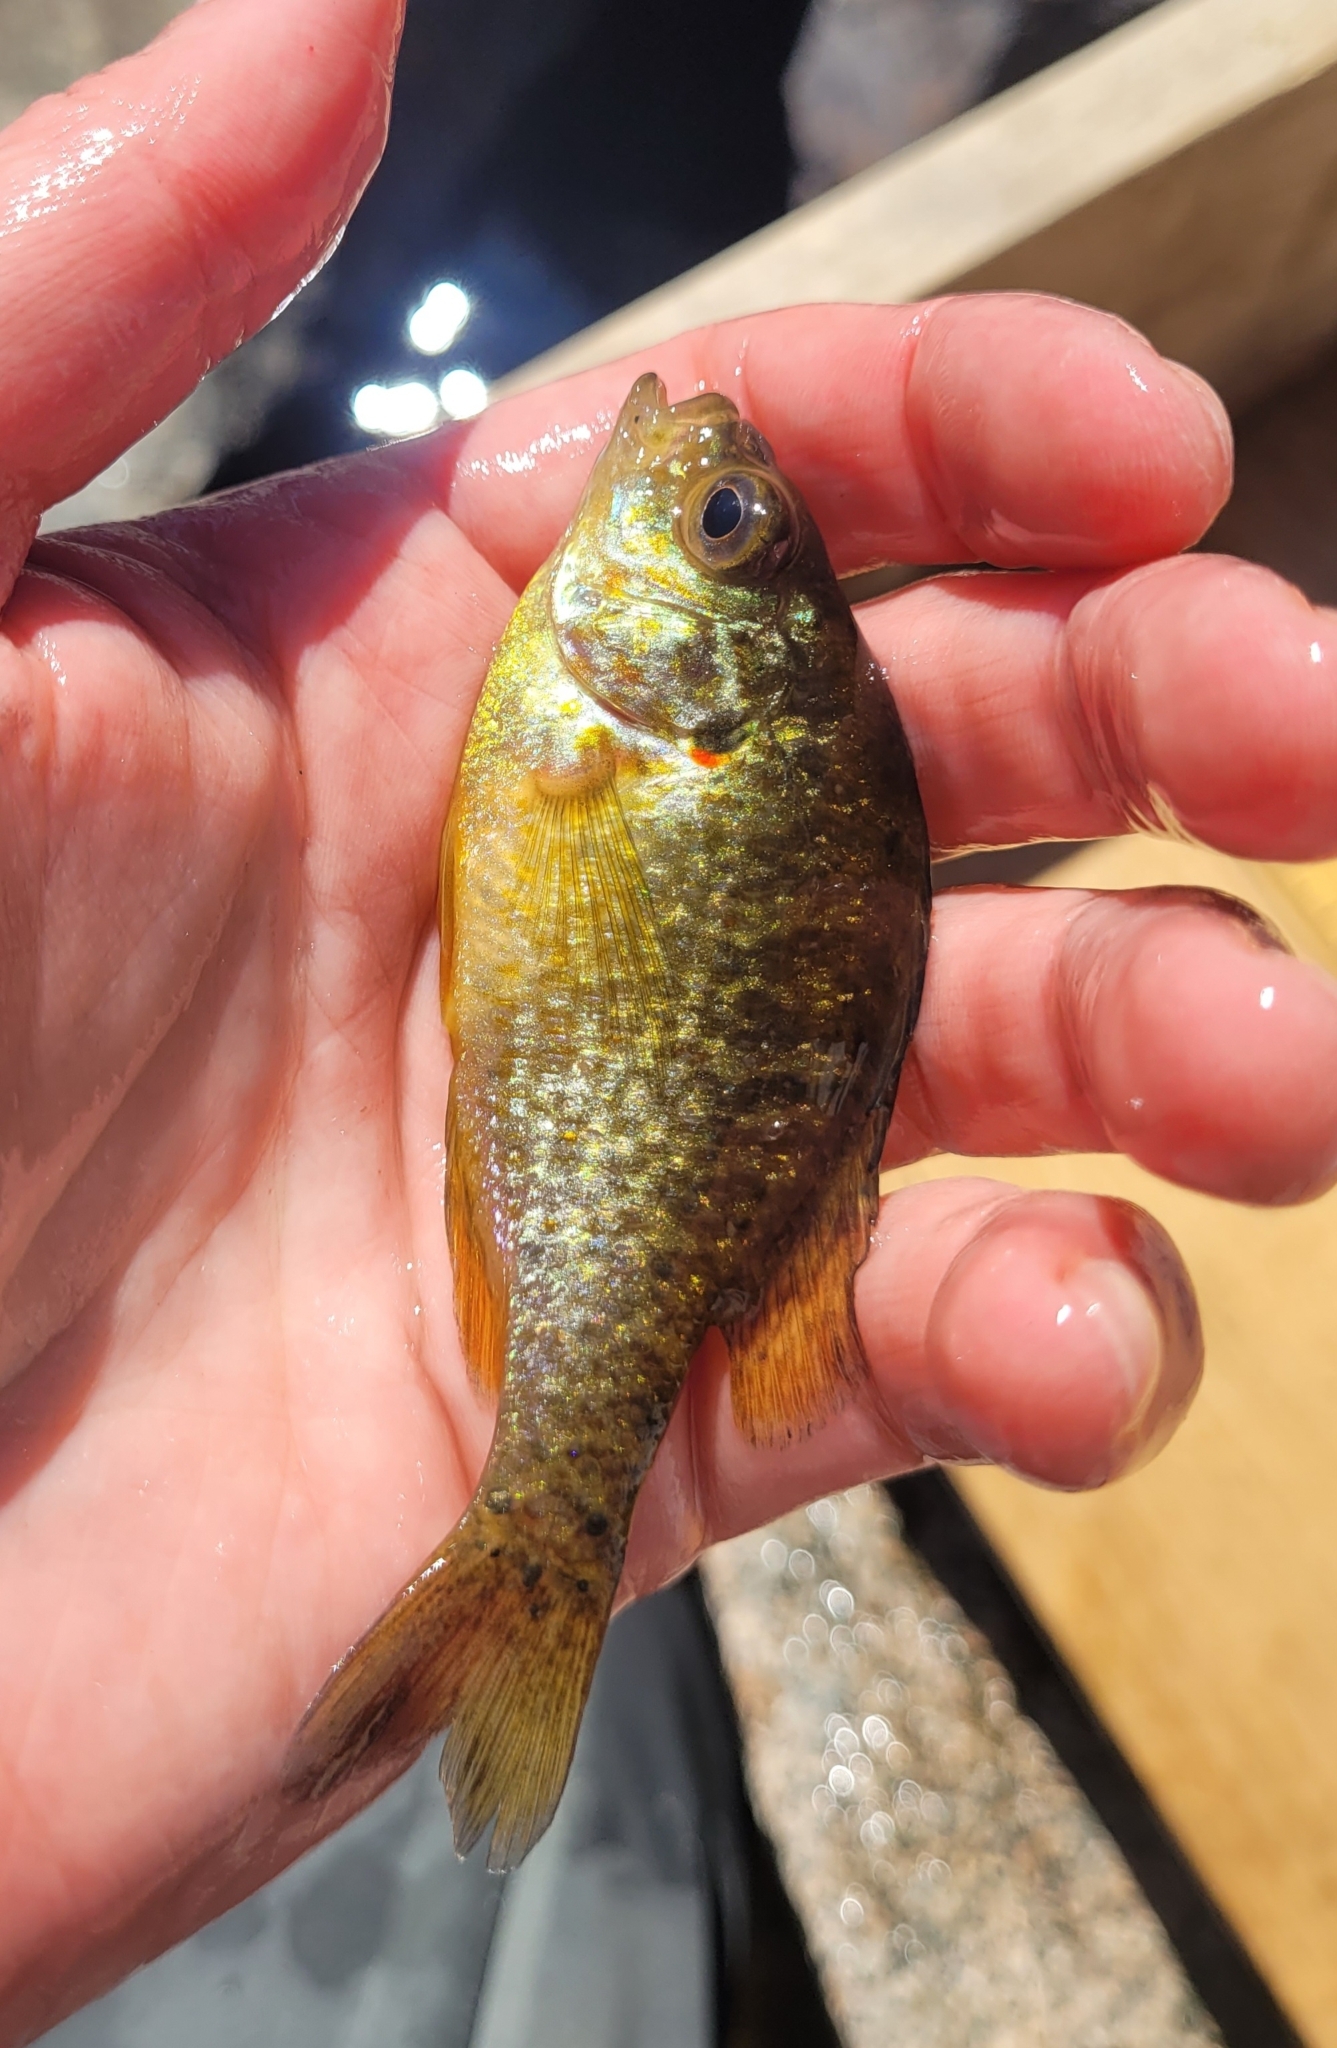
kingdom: Animalia
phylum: Chordata
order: Perciformes
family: Centrarchidae
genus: Lepomis
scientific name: Lepomis gibbosus
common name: Pumpkinseed
